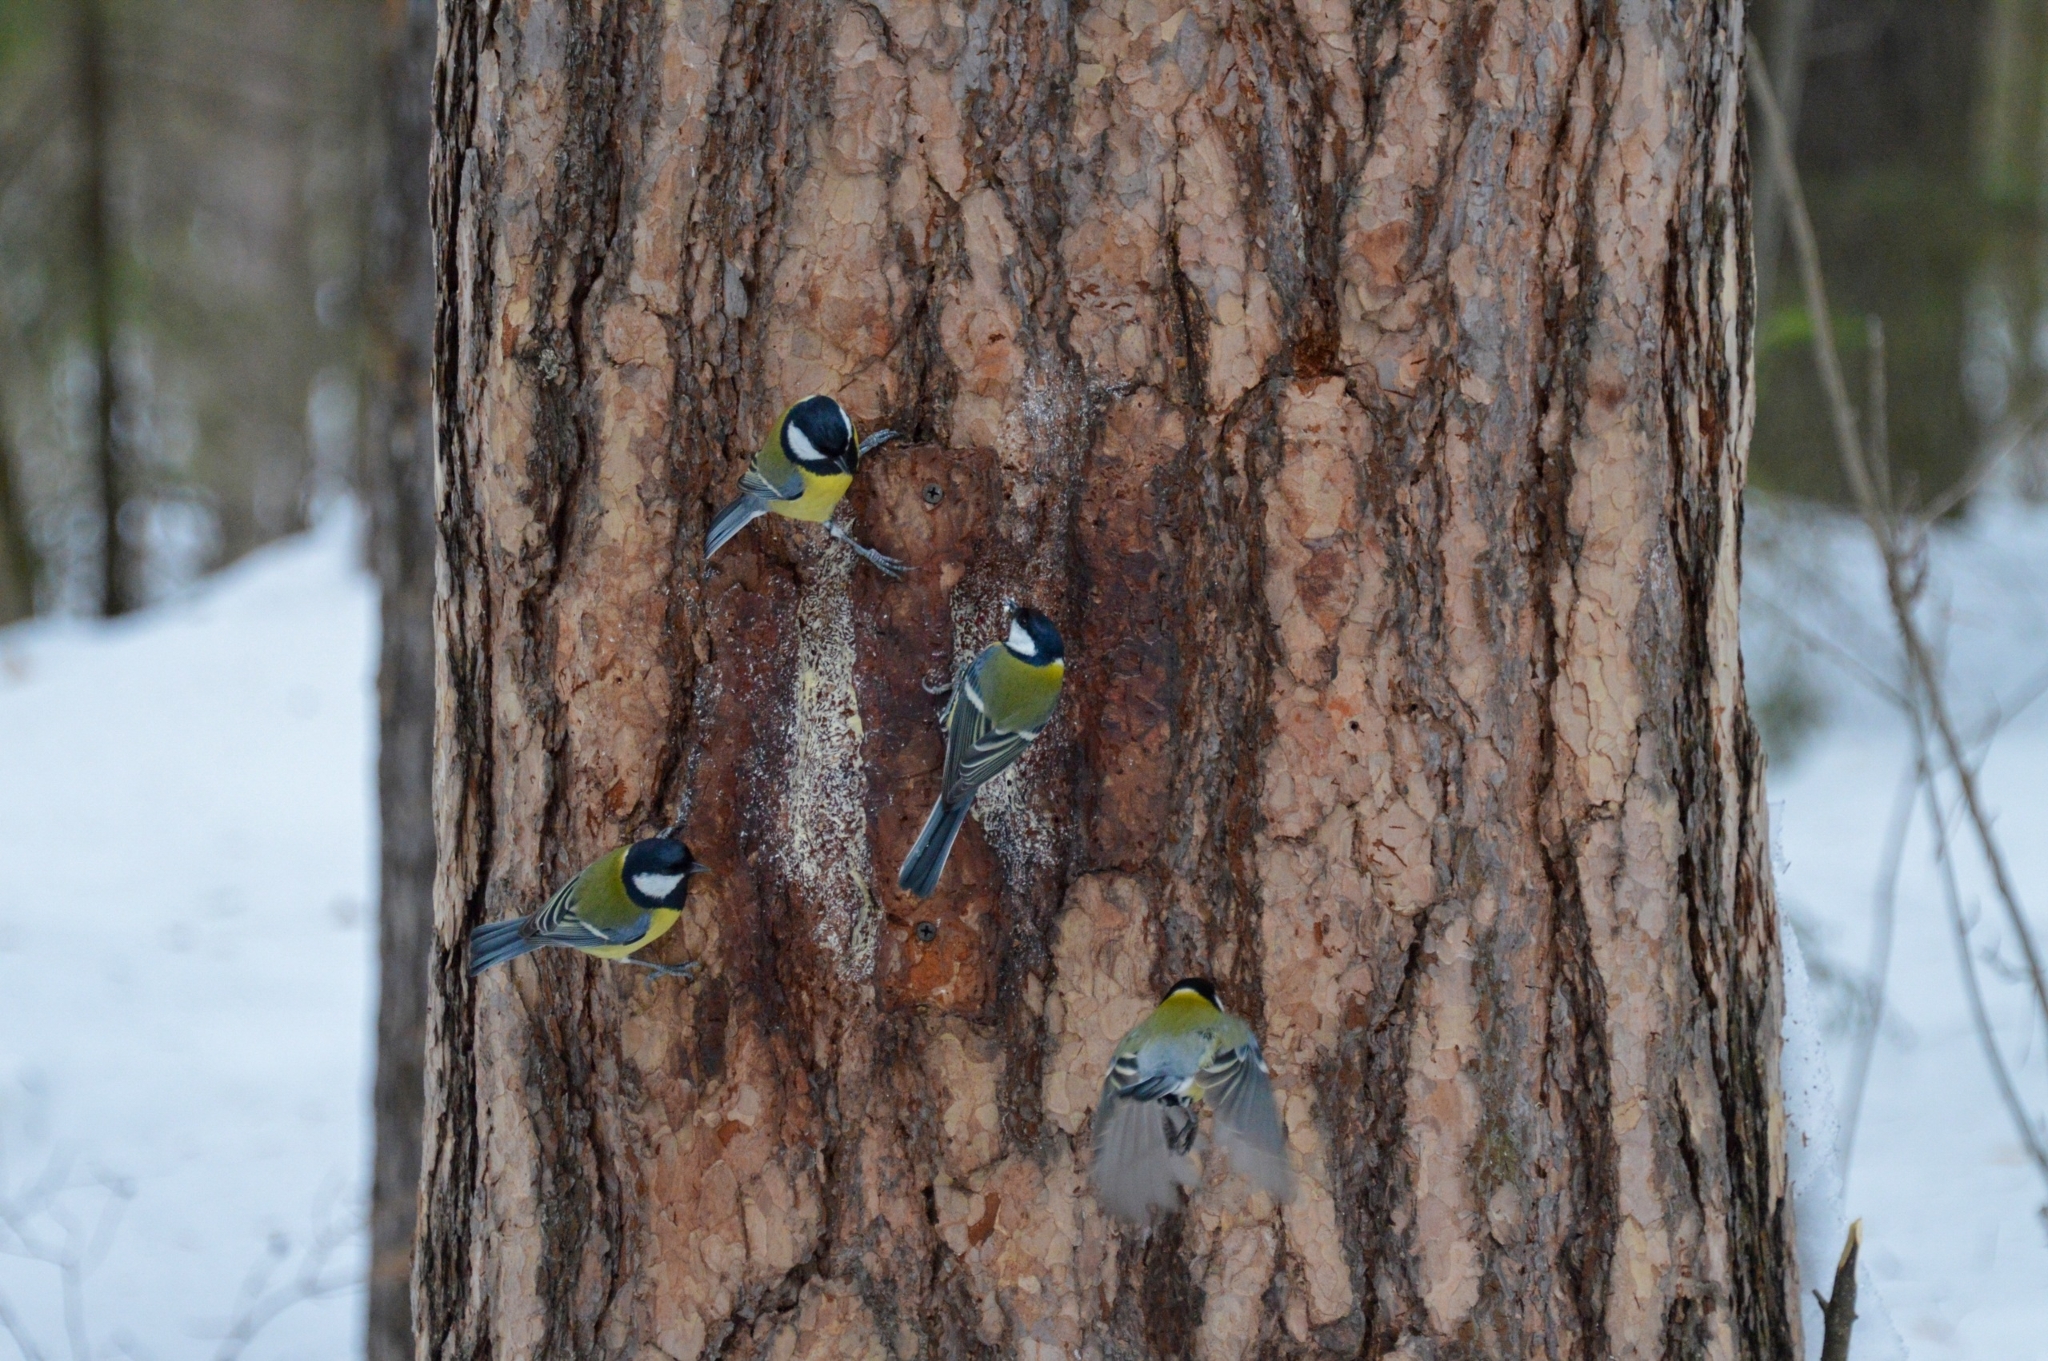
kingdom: Animalia
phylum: Chordata
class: Aves
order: Passeriformes
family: Paridae
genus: Parus
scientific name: Parus major
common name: Great tit
